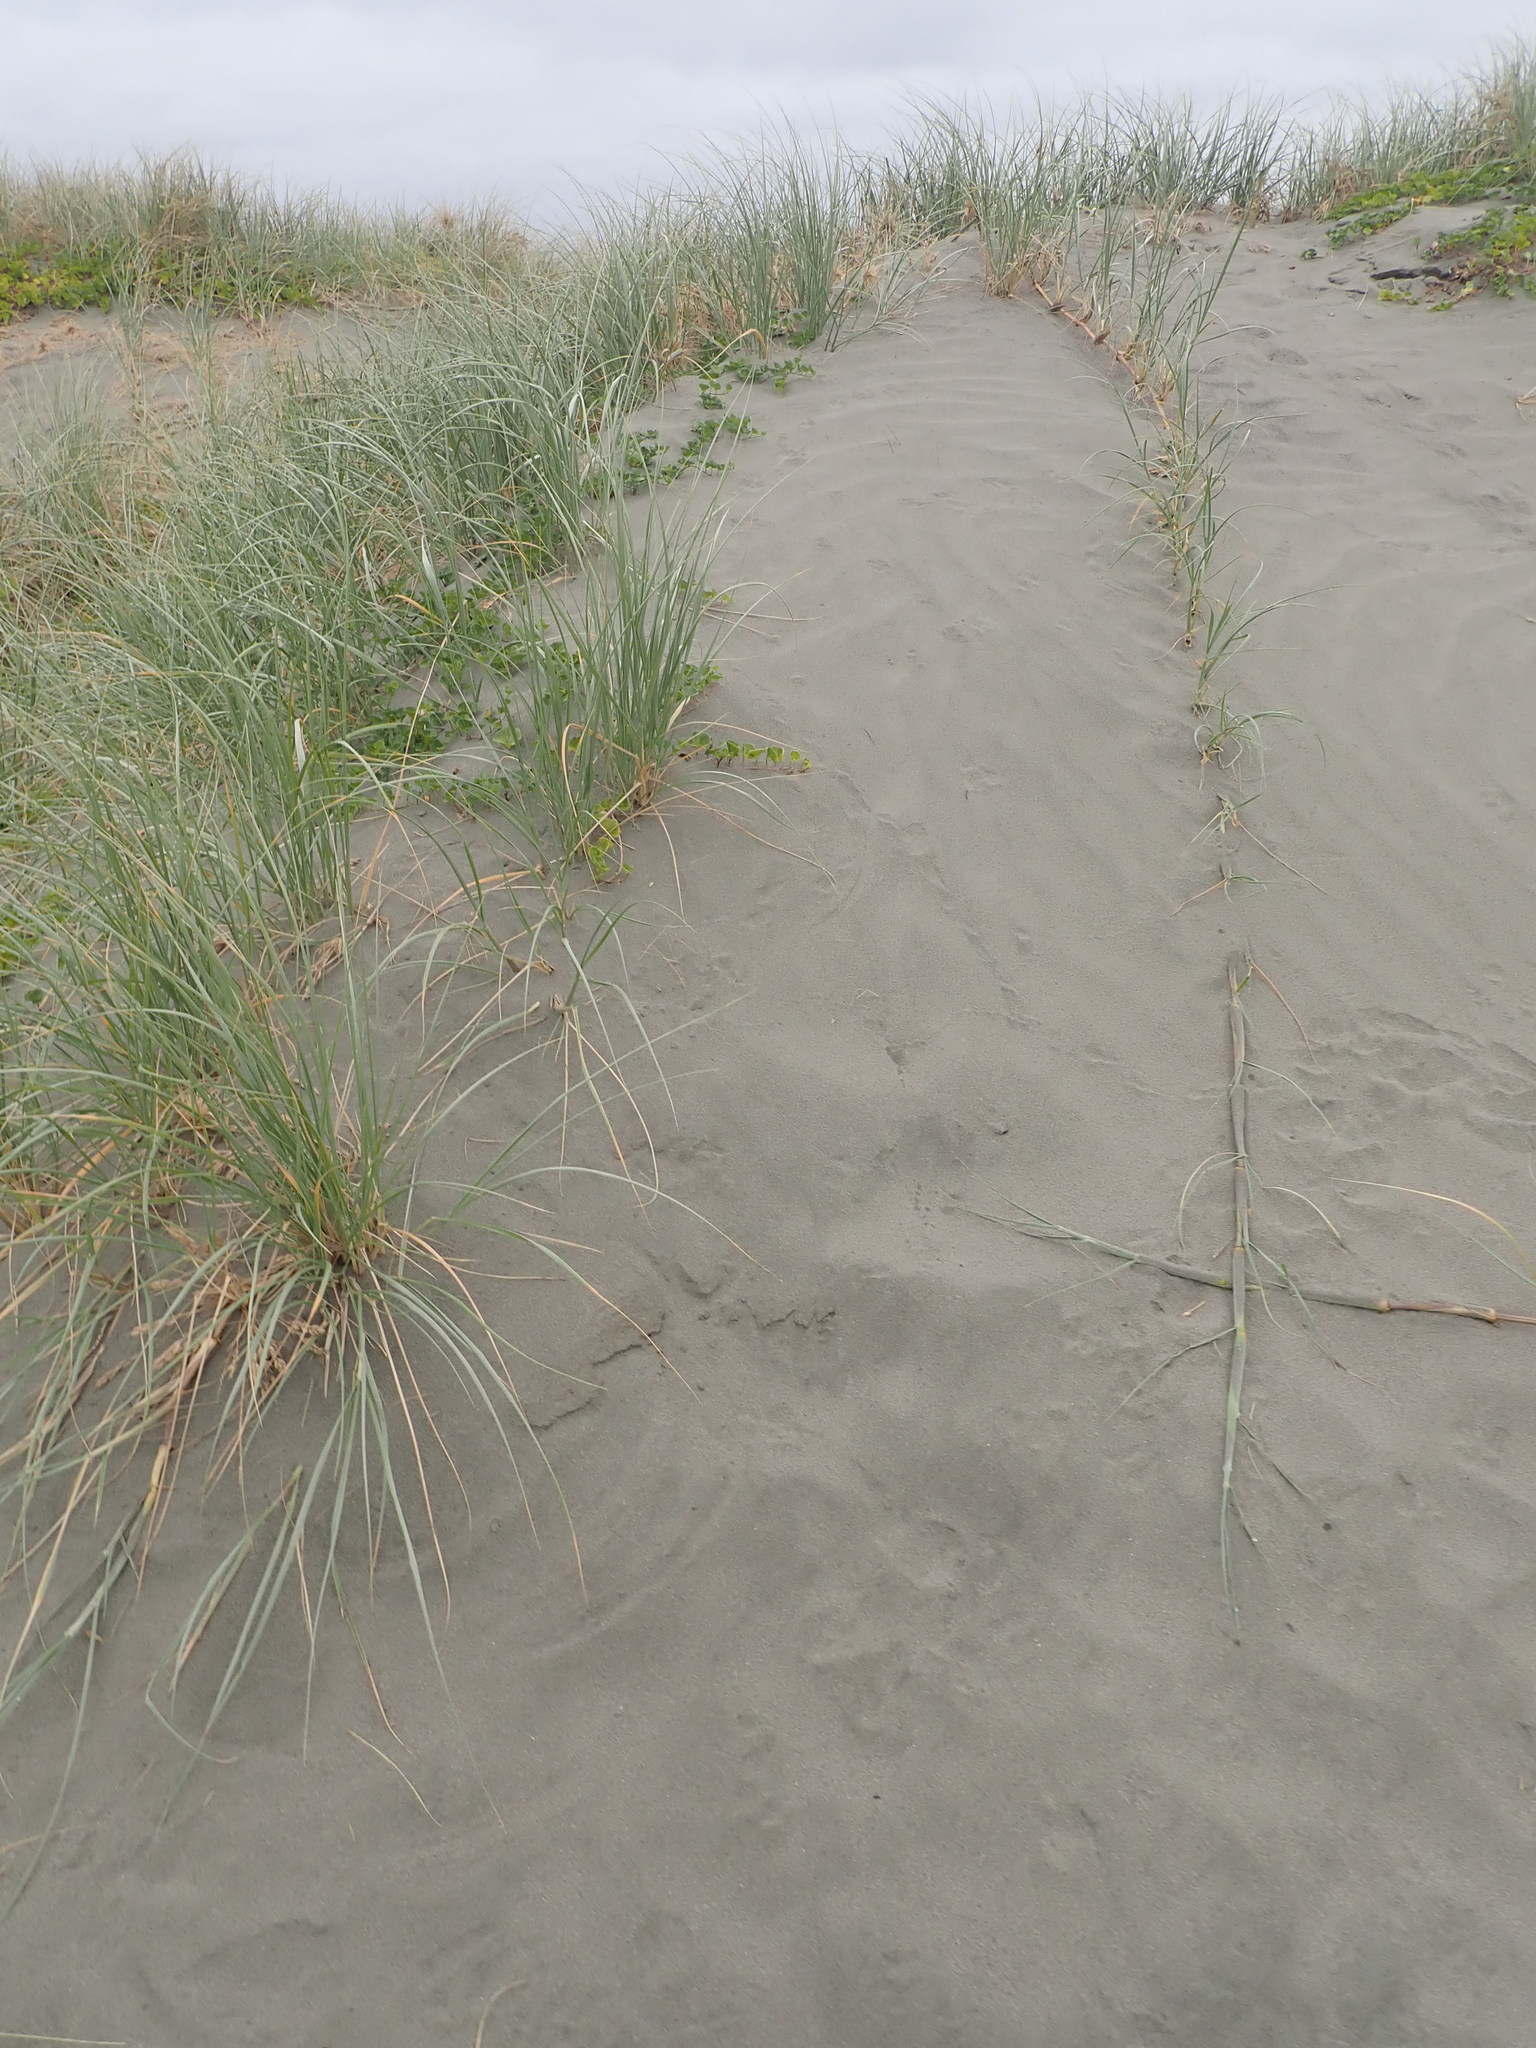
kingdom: Plantae
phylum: Tracheophyta
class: Liliopsida
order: Poales
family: Poaceae
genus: Spinifex
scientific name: Spinifex sericeus
